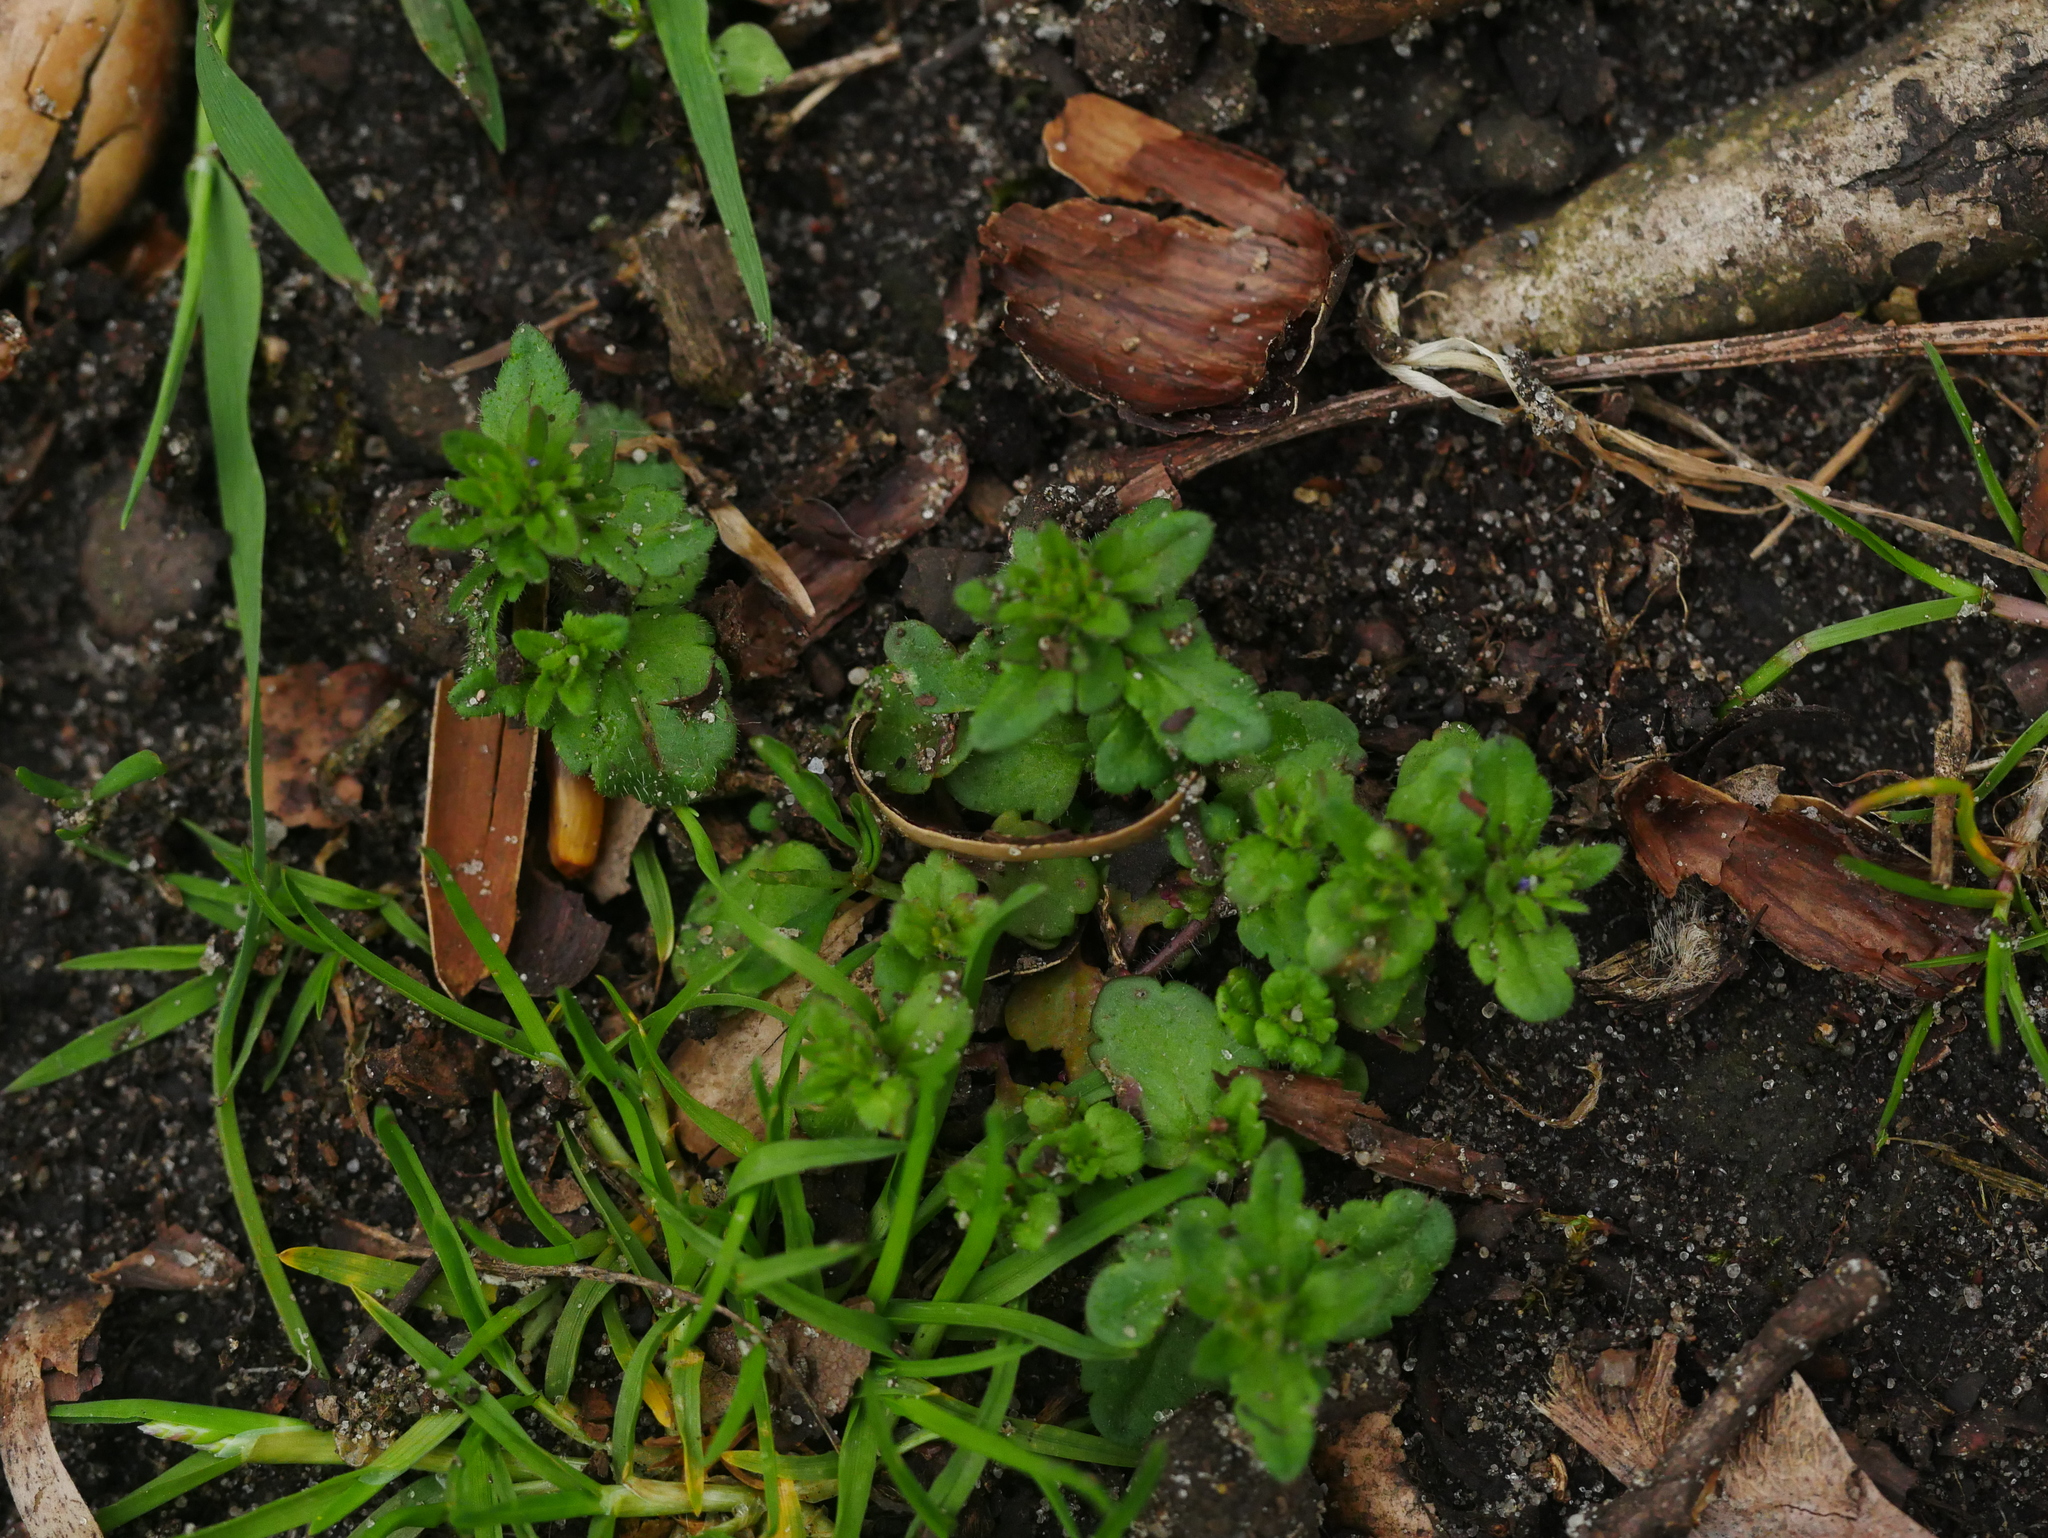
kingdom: Plantae
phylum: Tracheophyta
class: Magnoliopsida
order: Lamiales
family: Plantaginaceae
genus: Veronica
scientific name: Veronica arvensis
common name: Corn speedwell
